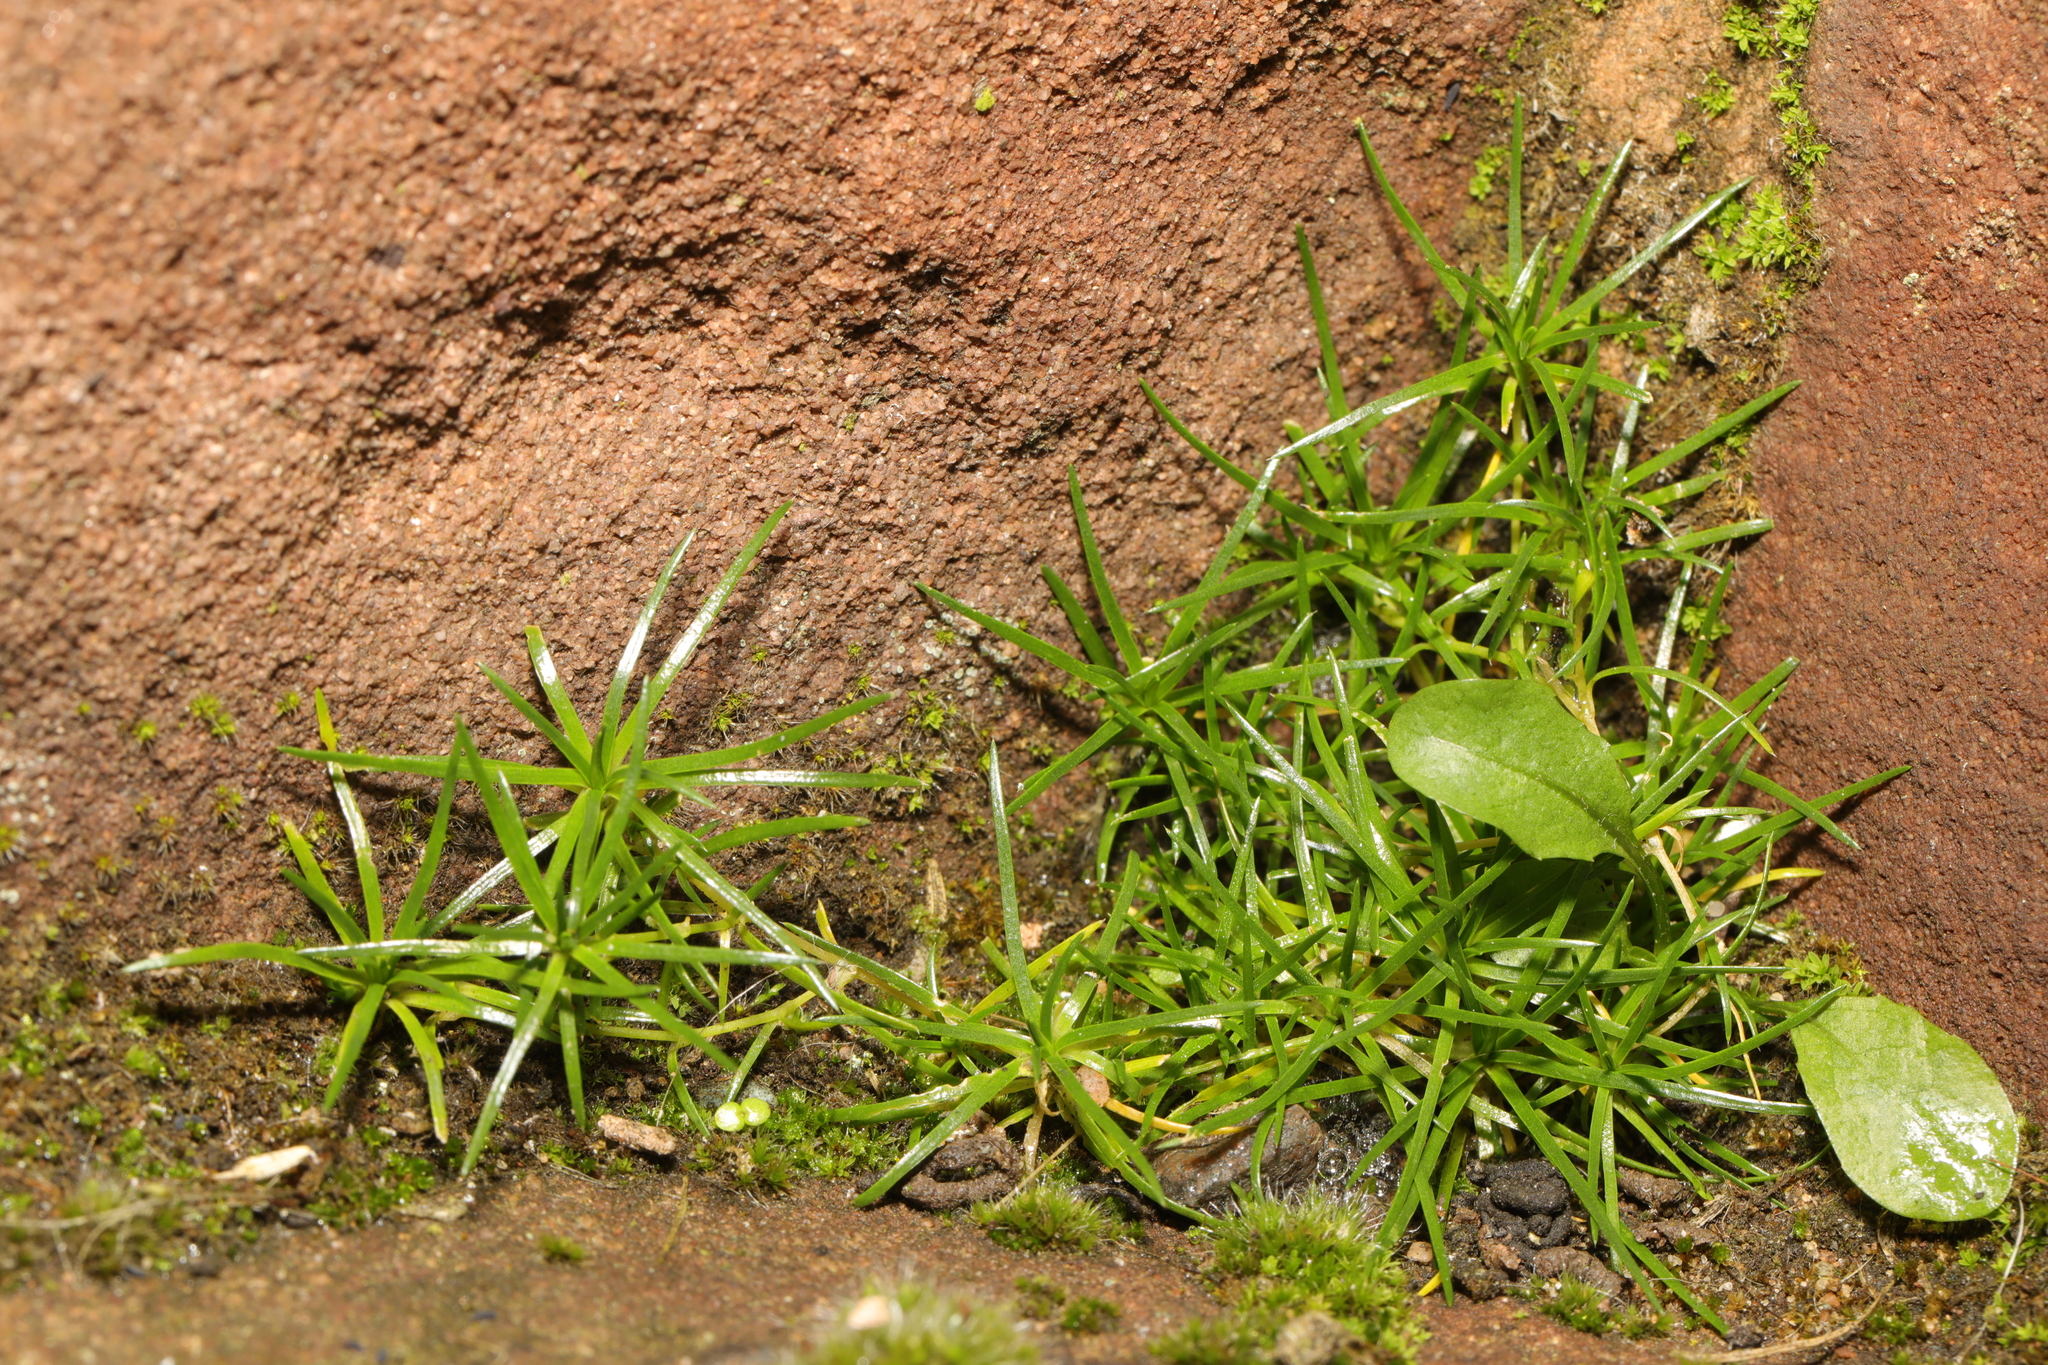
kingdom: Plantae
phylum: Tracheophyta
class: Magnoliopsida
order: Caryophyllales
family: Caryophyllaceae
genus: Sagina
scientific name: Sagina procumbens
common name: Procumbent pearlwort
